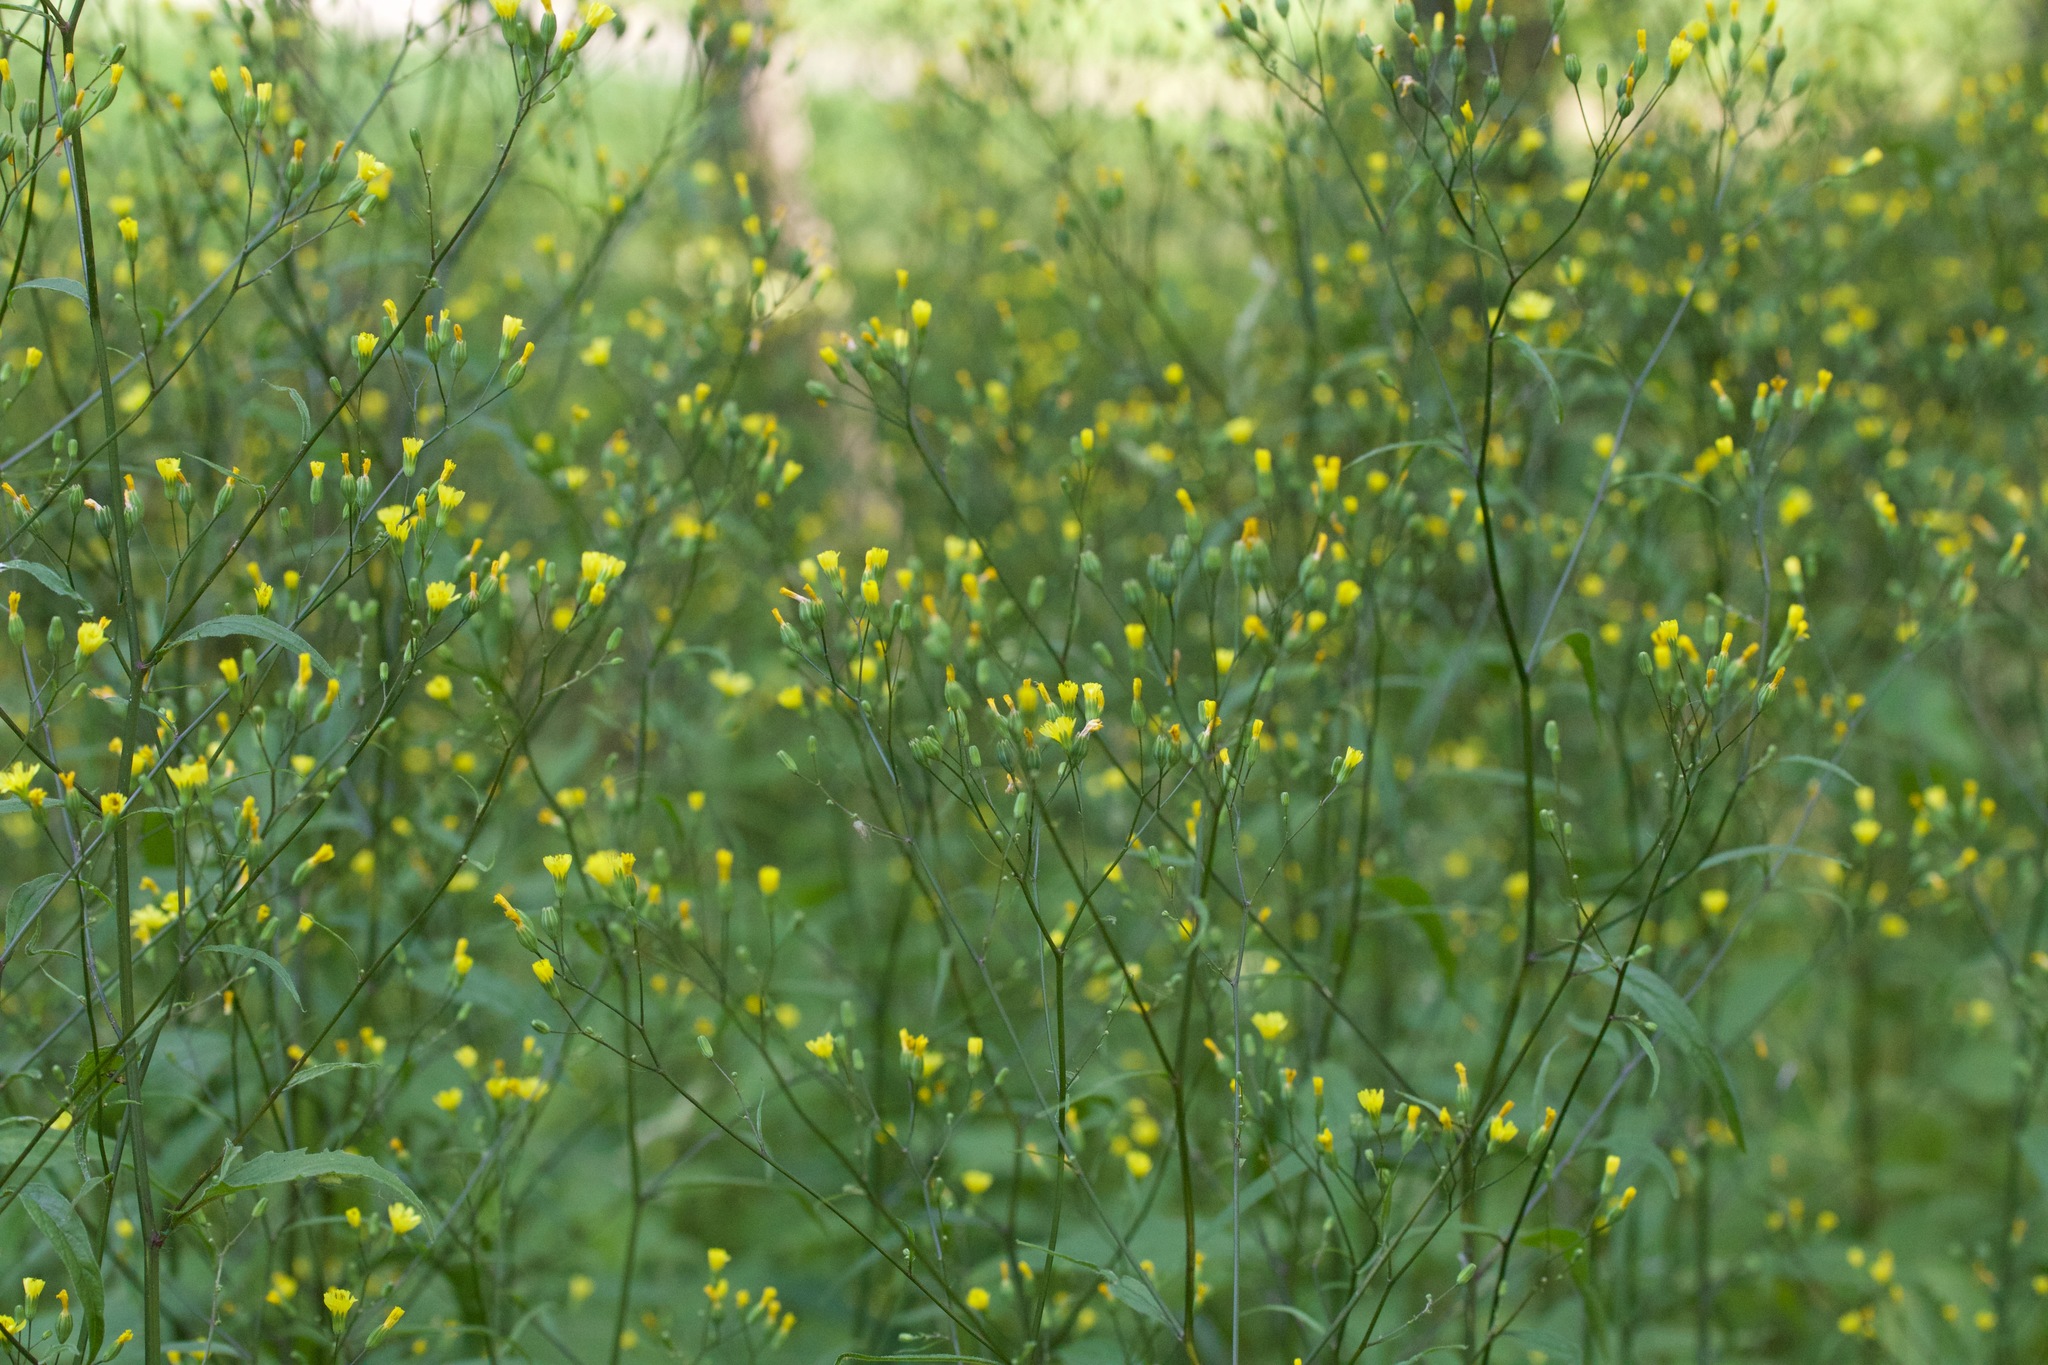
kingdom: Plantae
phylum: Tracheophyta
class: Magnoliopsida
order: Asterales
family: Asteraceae
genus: Lapsana
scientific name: Lapsana communis
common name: Nipplewort
